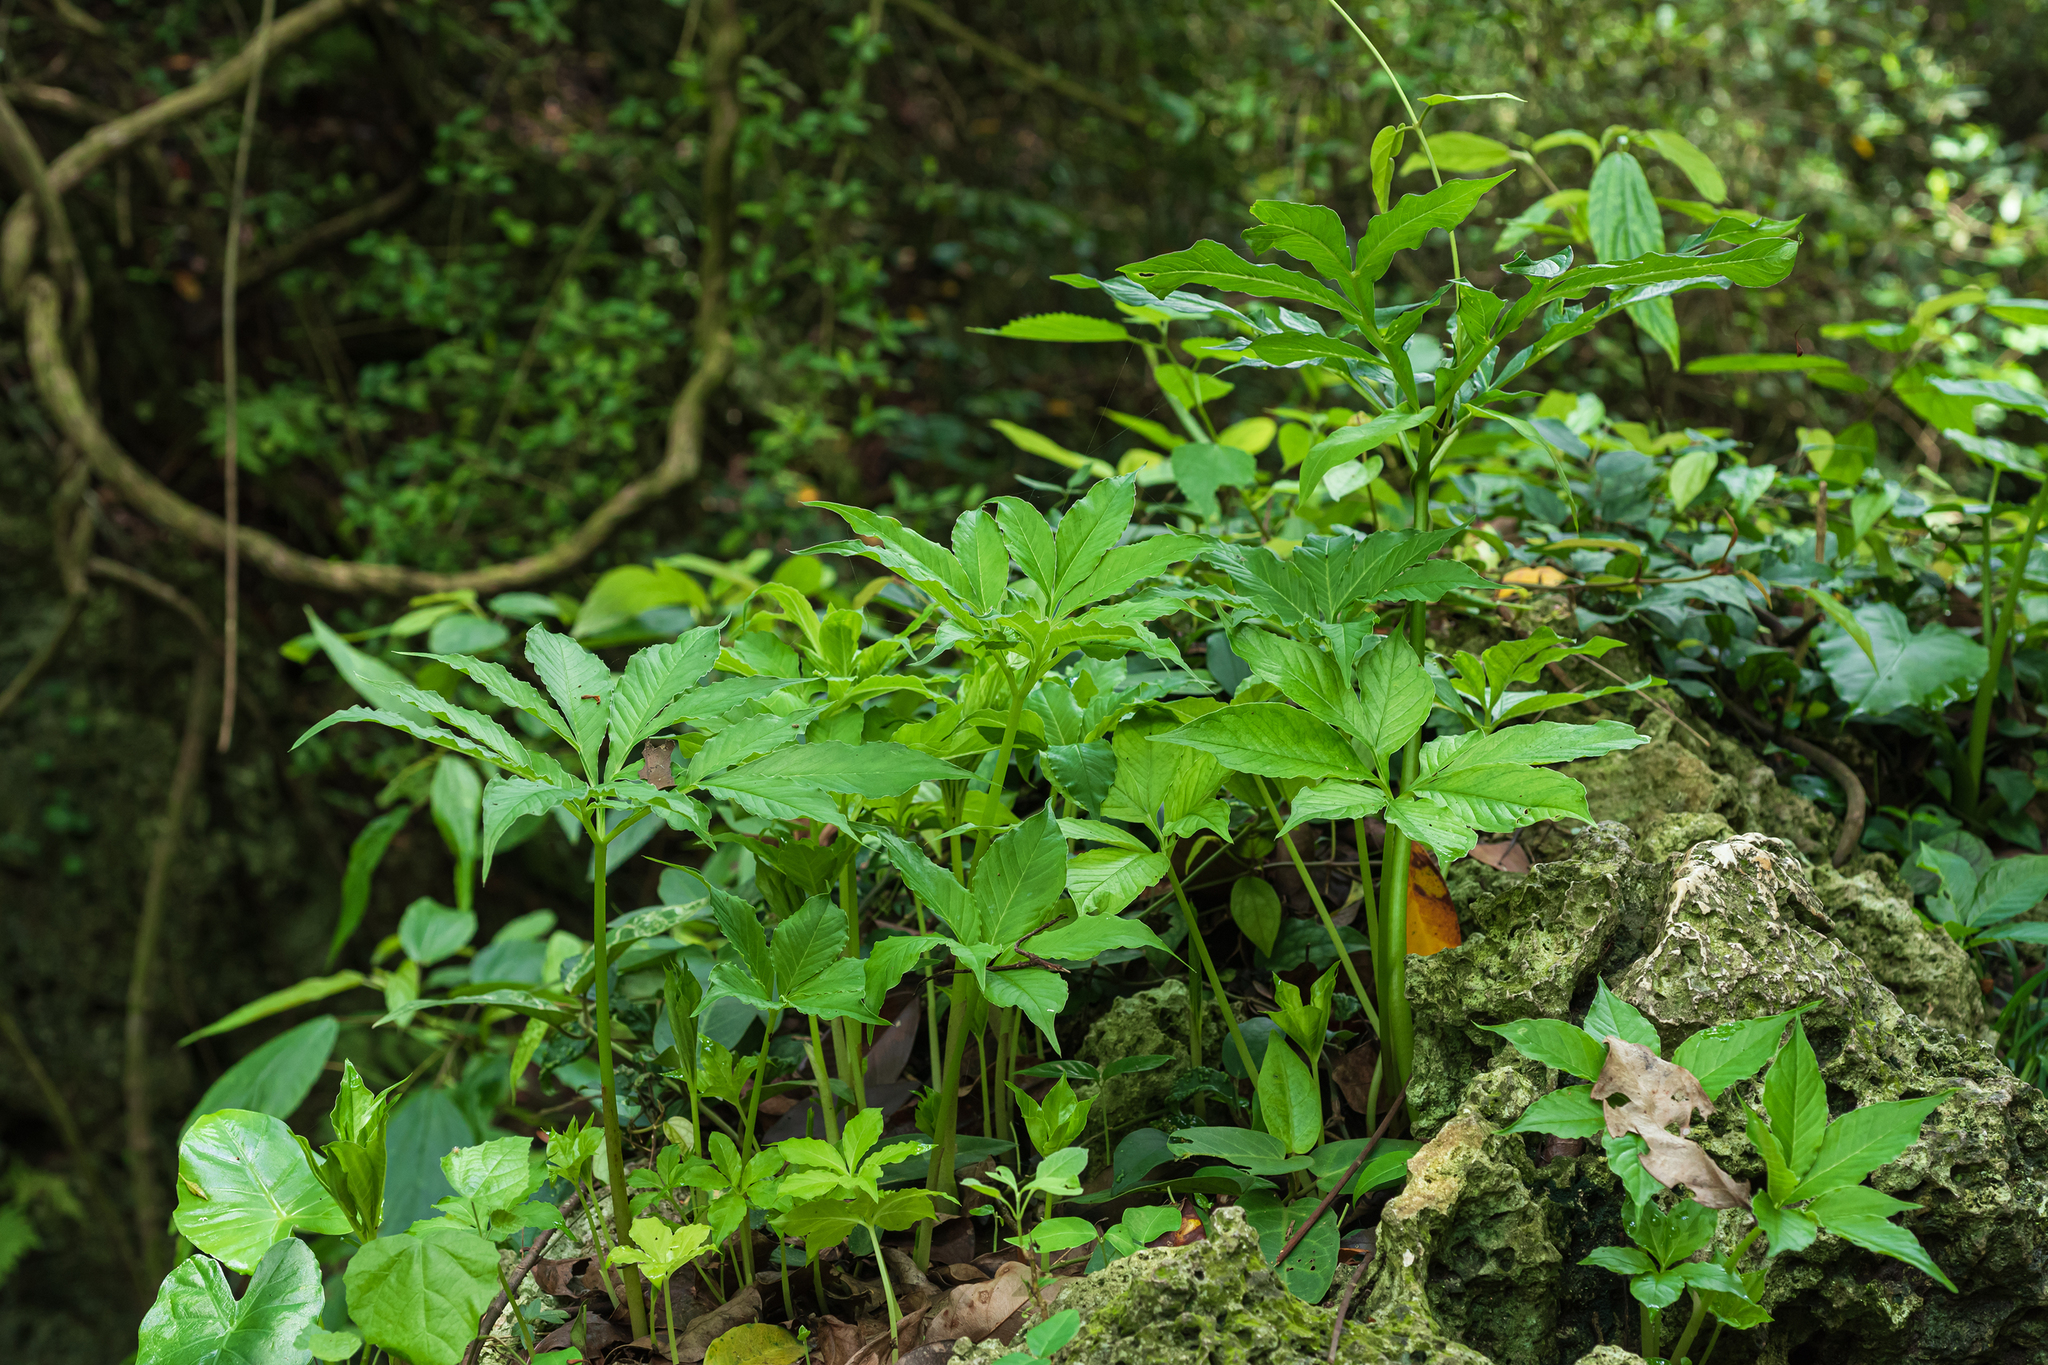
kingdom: Plantae
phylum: Tracheophyta
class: Liliopsida
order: Alismatales
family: Araceae
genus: Amorphophallus
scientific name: Amorphophallus henryi
